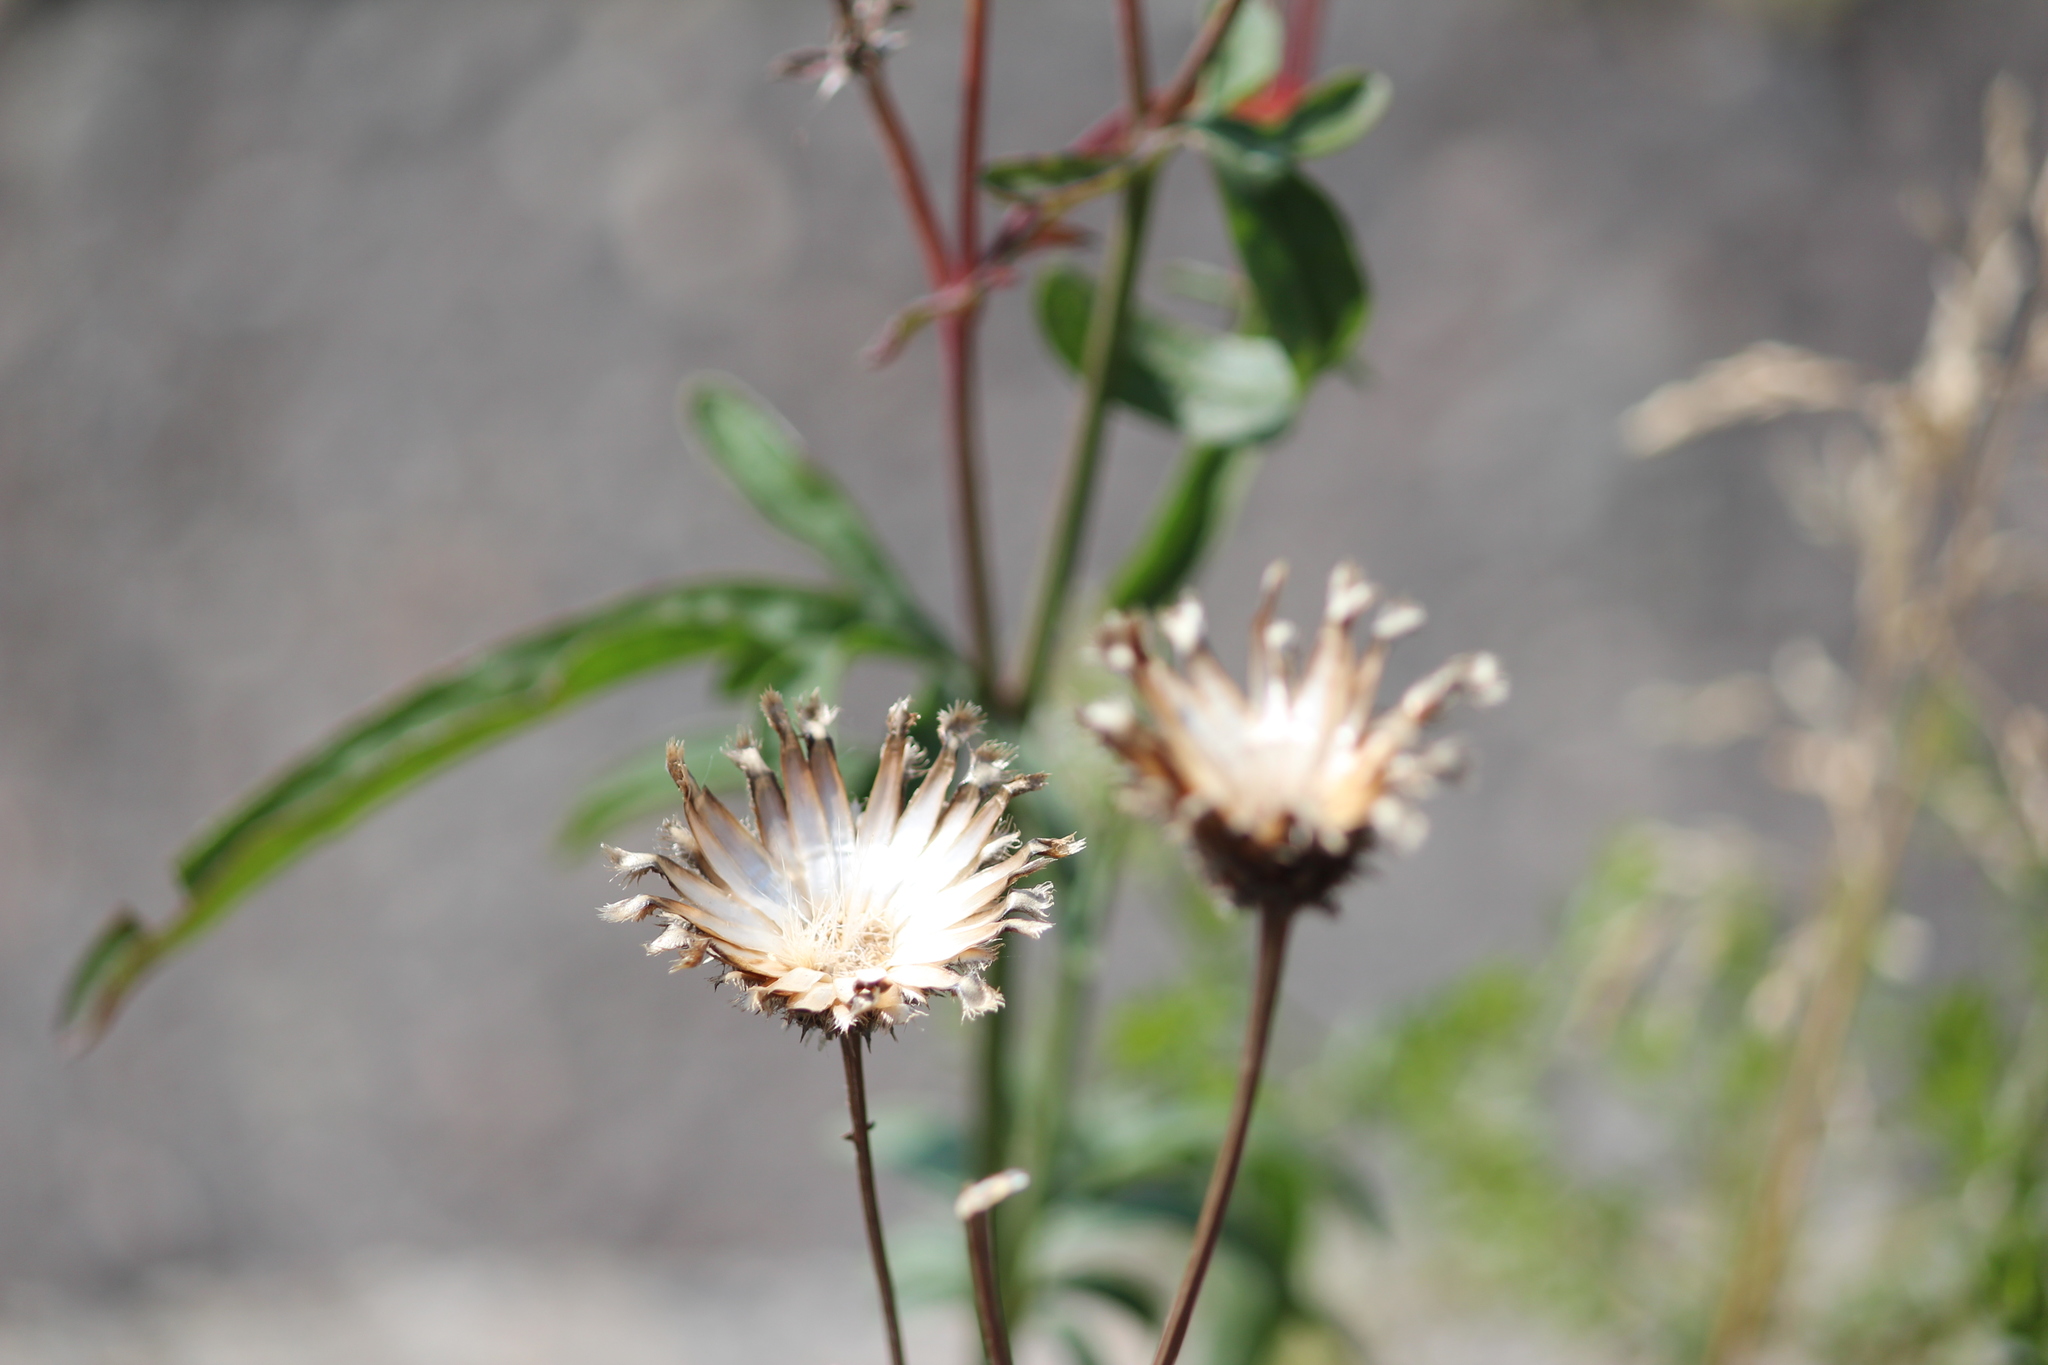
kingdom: Plantae
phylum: Tracheophyta
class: Magnoliopsida
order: Asterales
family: Asteraceae
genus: Centaurea
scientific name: Centaurea scabiosa
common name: Greater knapweed
